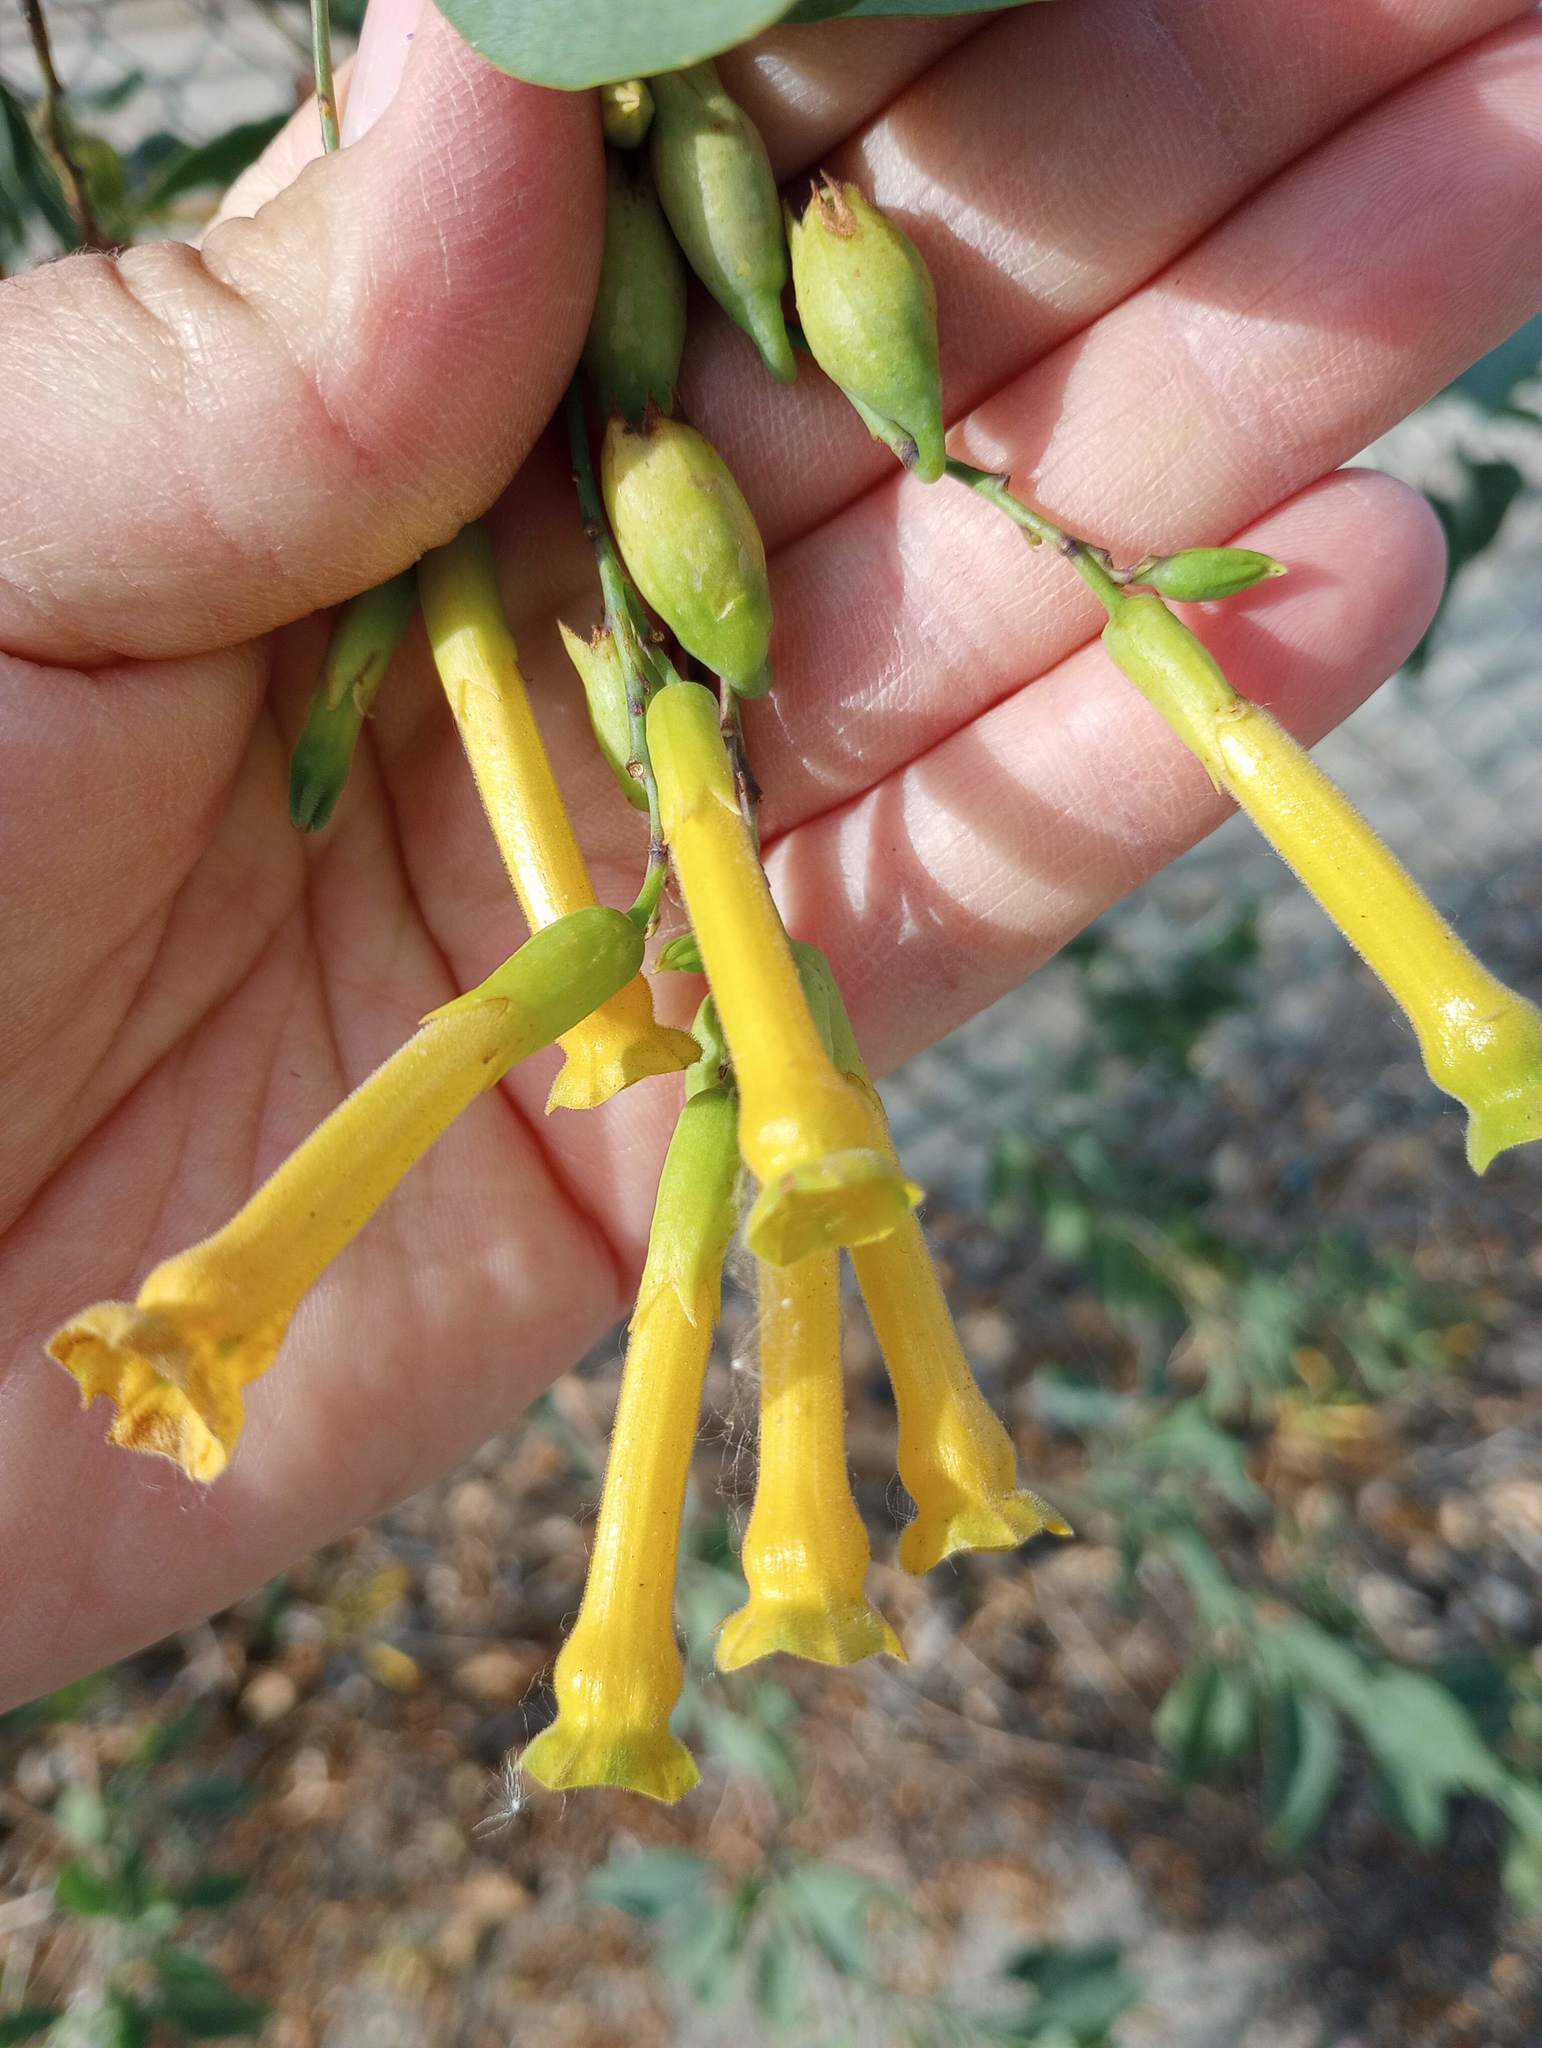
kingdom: Plantae
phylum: Tracheophyta
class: Magnoliopsida
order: Solanales
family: Solanaceae
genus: Nicotiana
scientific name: Nicotiana glauca
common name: Tree tobacco
